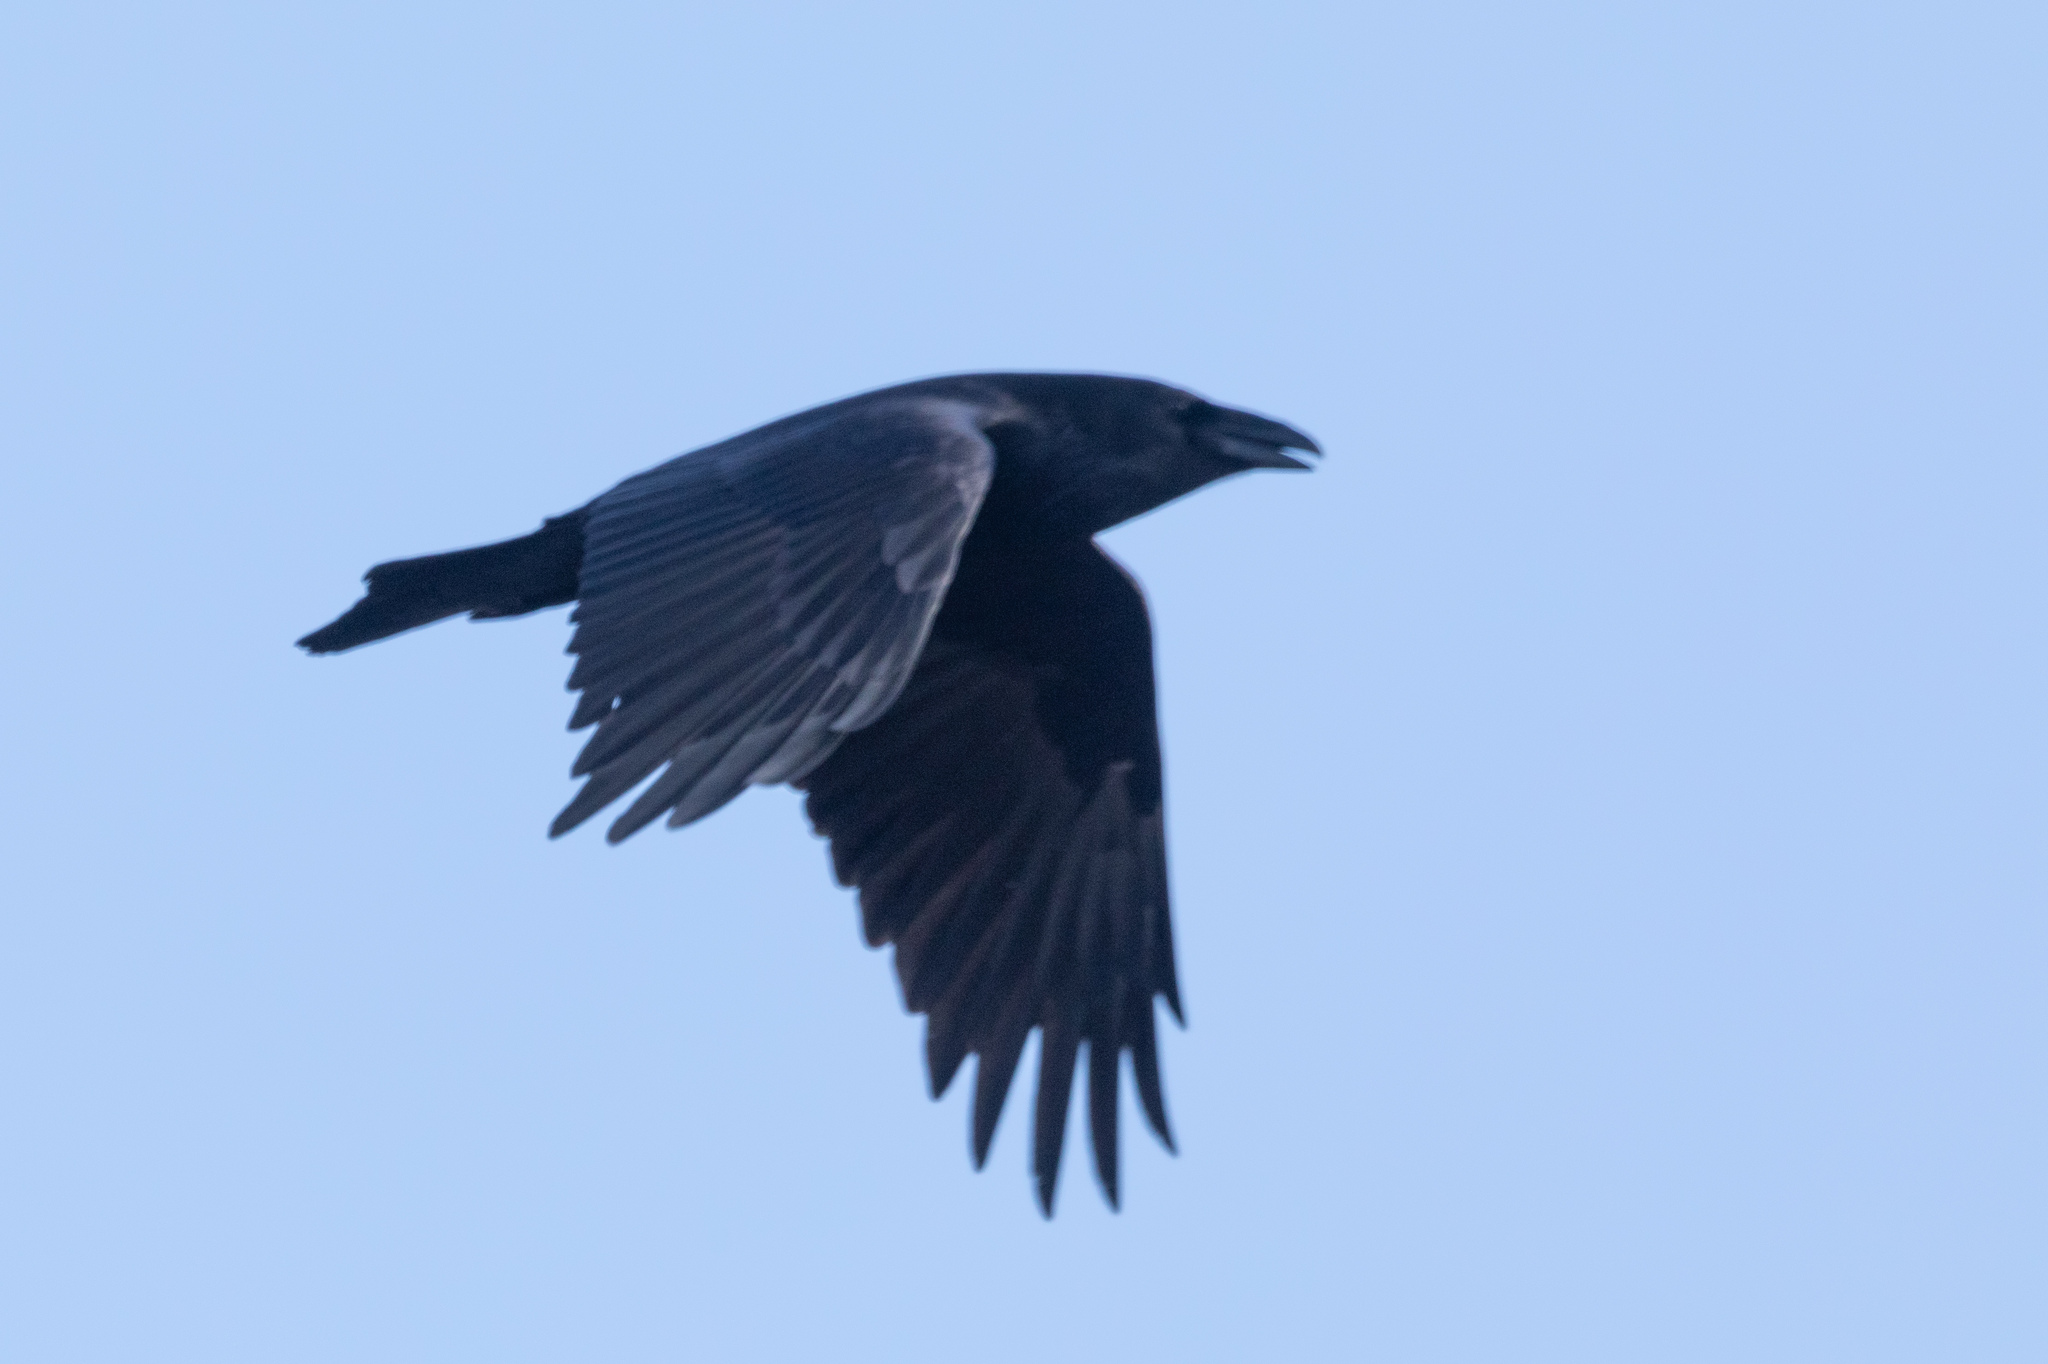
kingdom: Animalia
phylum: Chordata
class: Aves
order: Passeriformes
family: Corvidae
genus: Corvus
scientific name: Corvus corax
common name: Common raven
